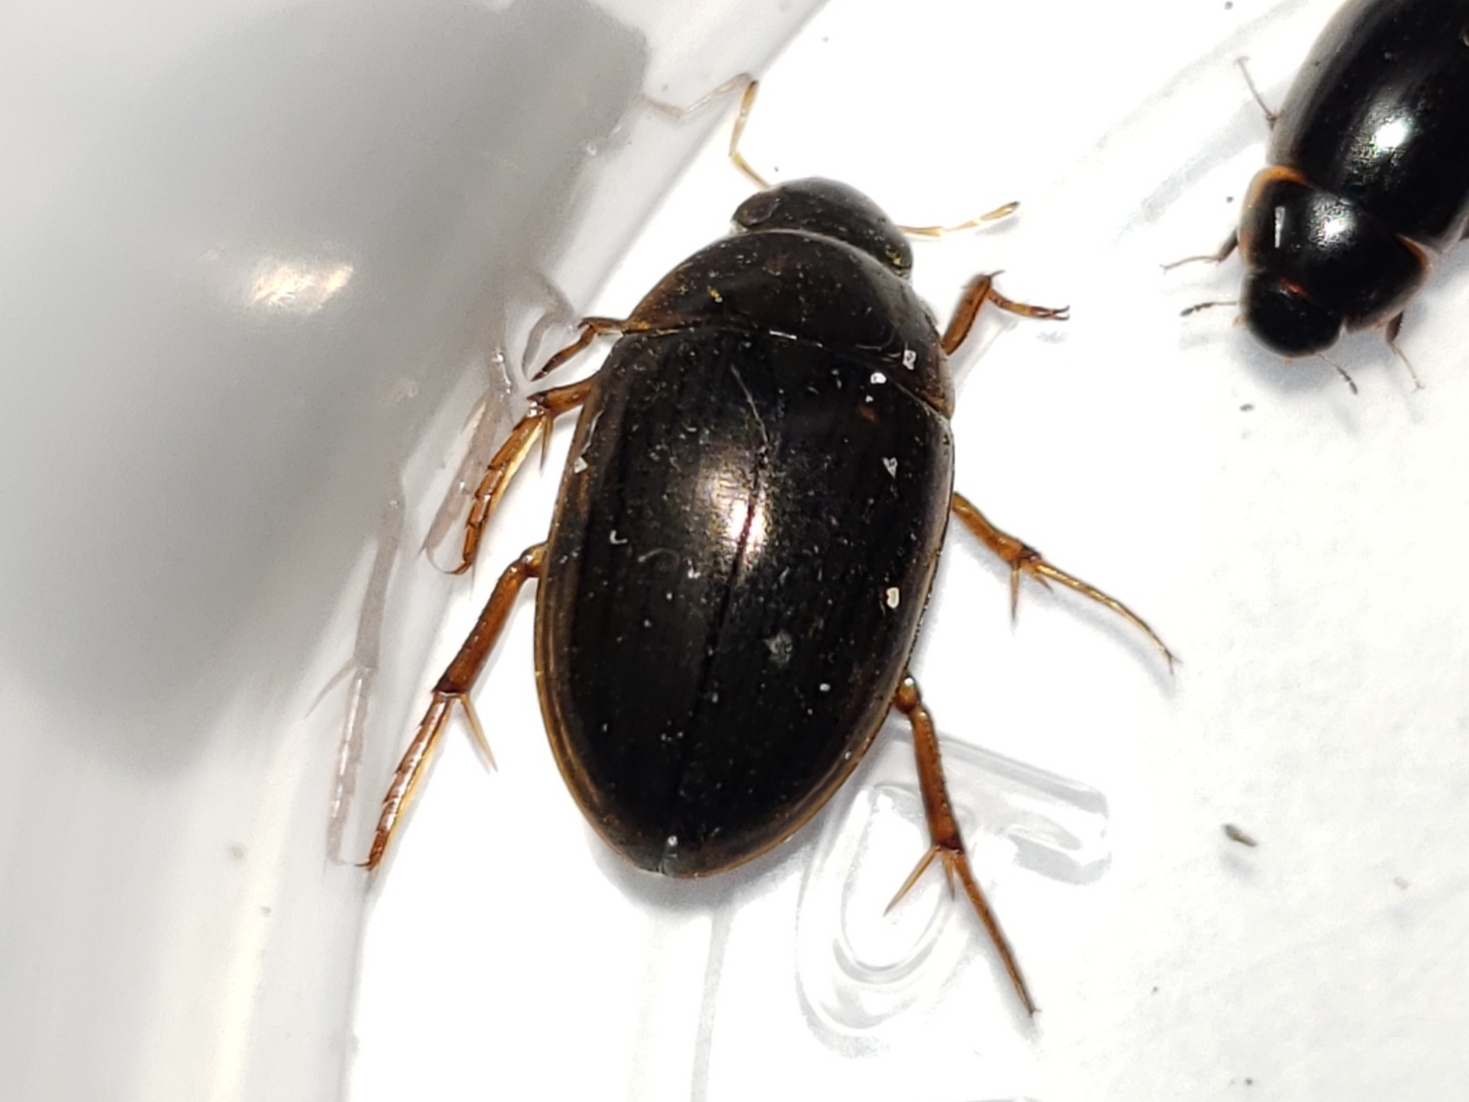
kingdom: Animalia
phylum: Arthropoda
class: Insecta
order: Coleoptera
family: Hydrophilidae
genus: Tropisternus
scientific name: Tropisternus collaris
